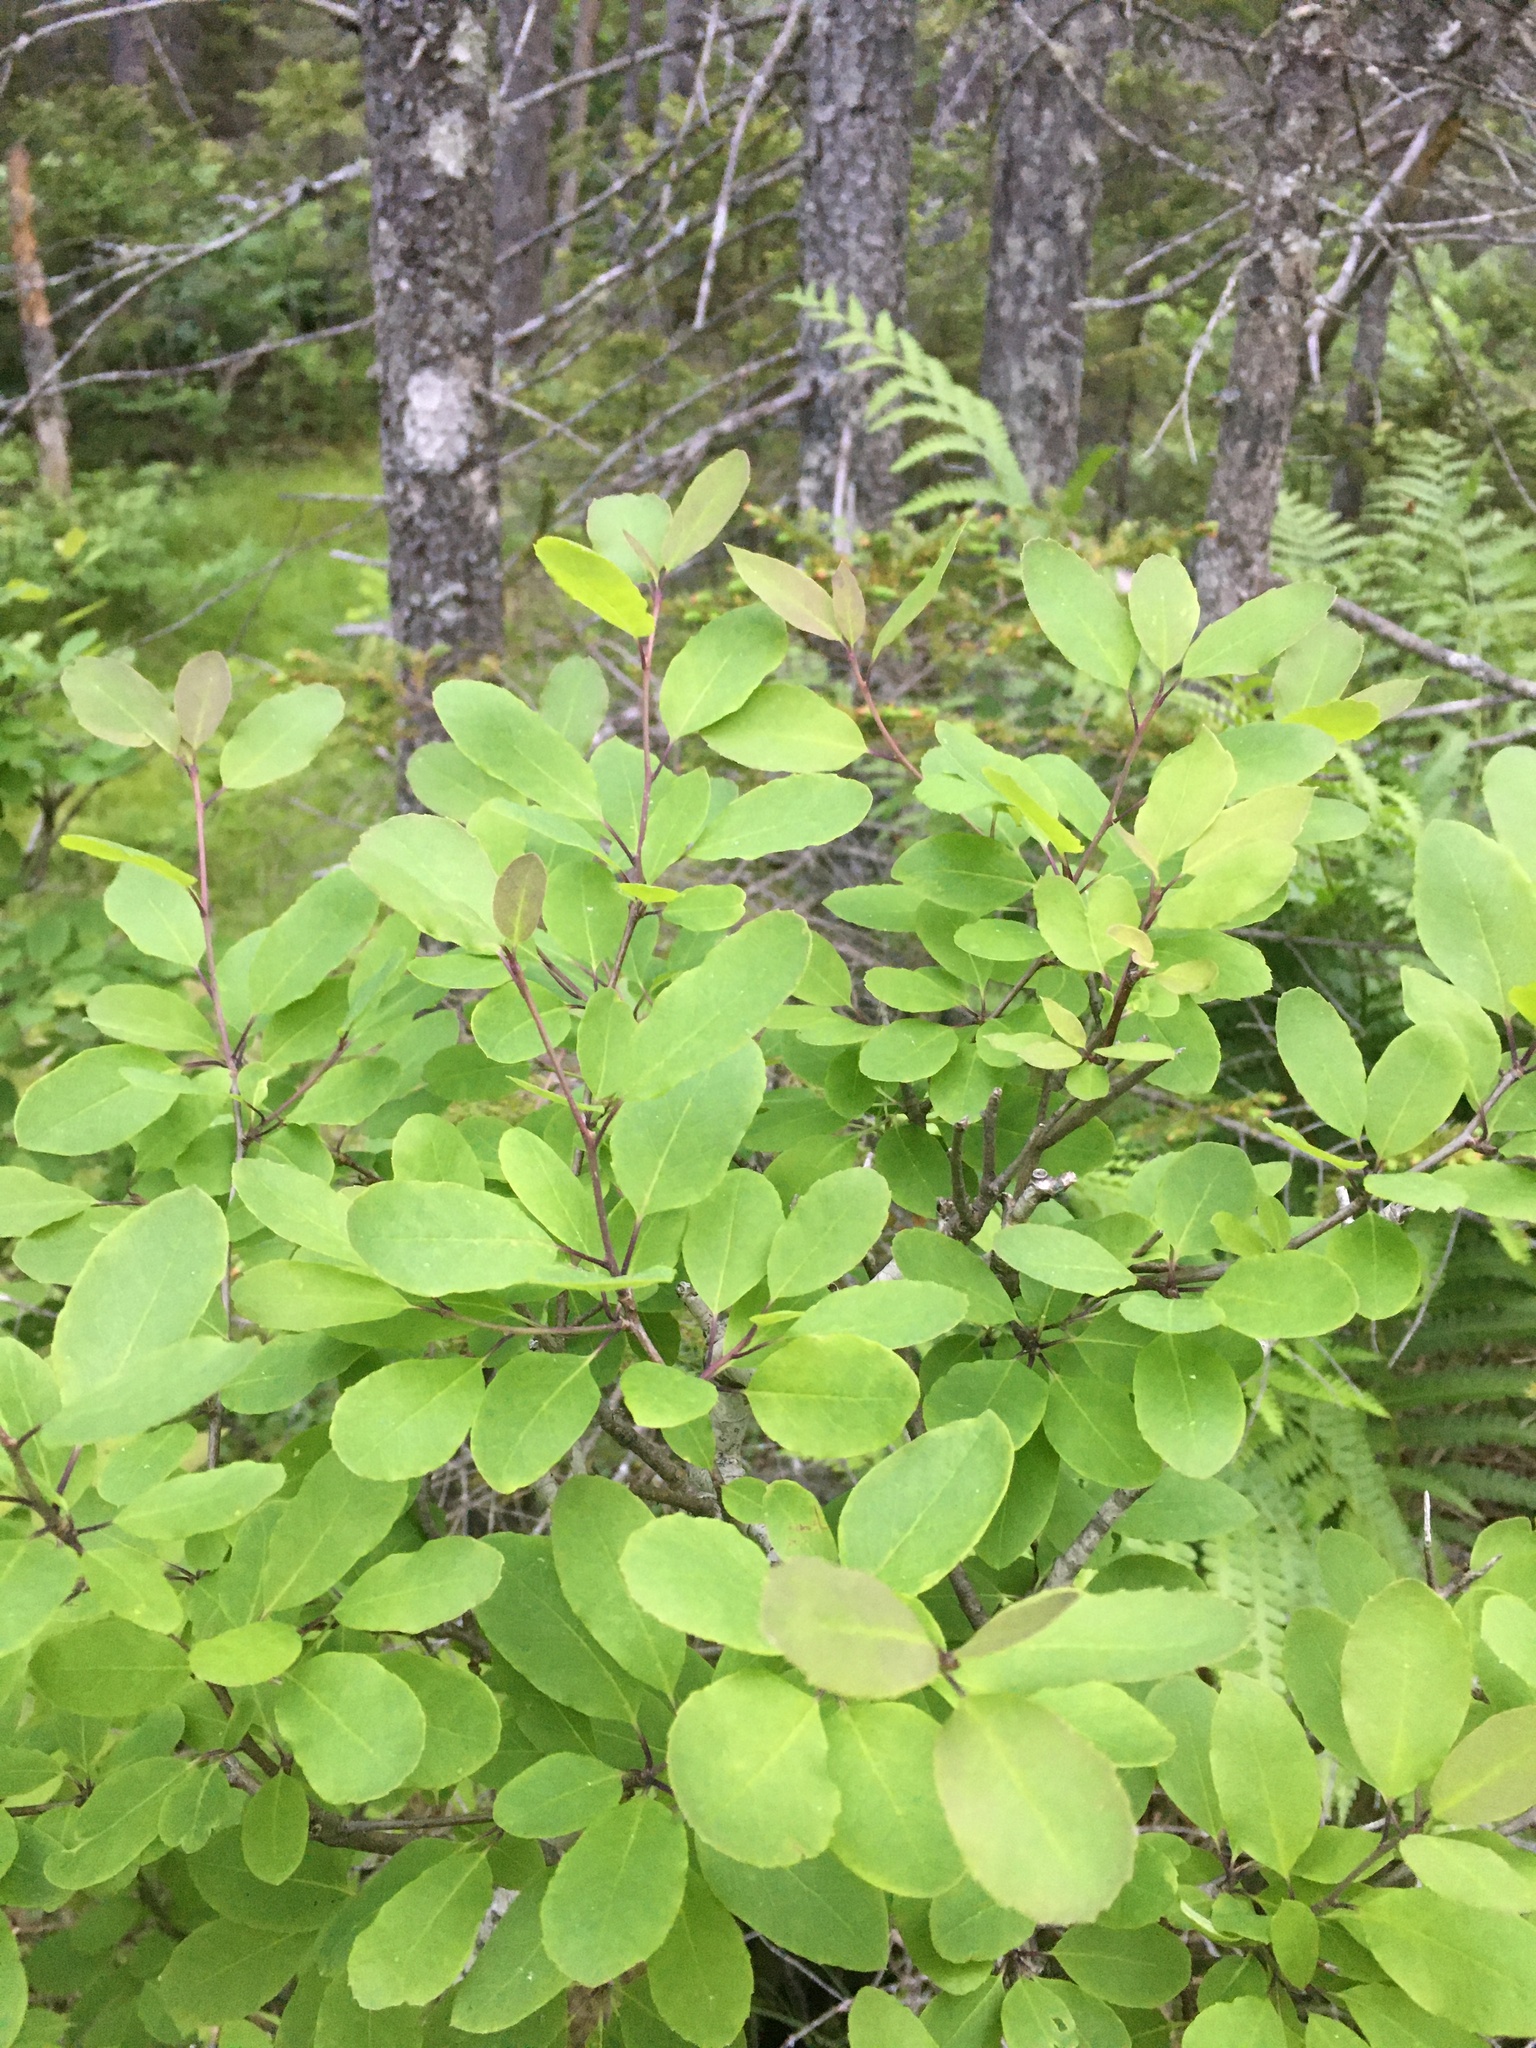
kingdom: Plantae
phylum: Tracheophyta
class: Magnoliopsida
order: Aquifoliales
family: Aquifoliaceae
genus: Ilex
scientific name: Ilex mucronata
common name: Catberry
